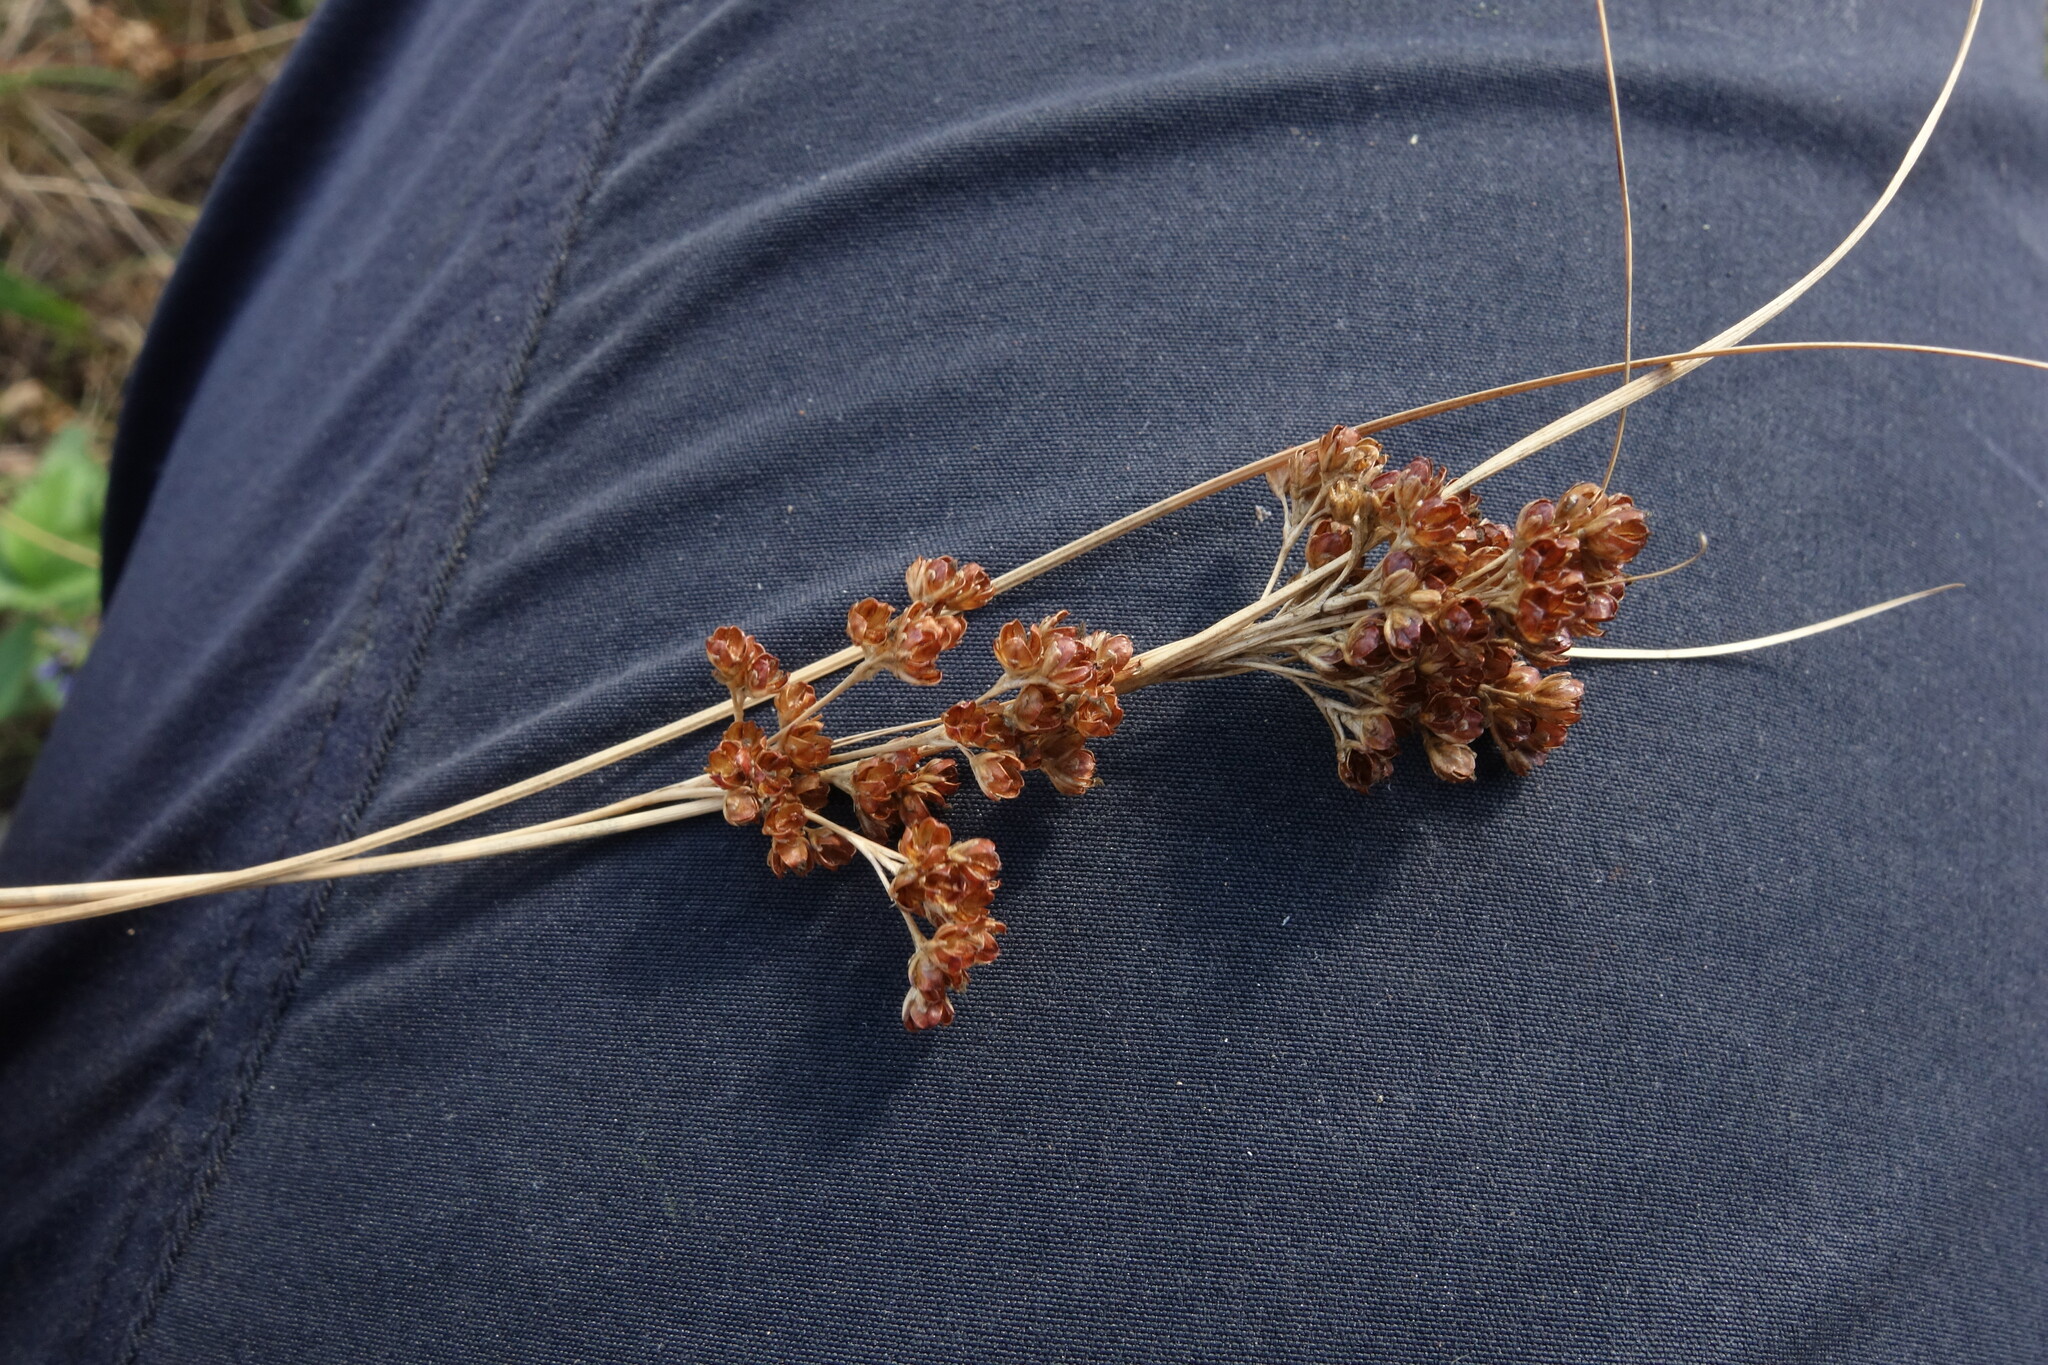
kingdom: Plantae
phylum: Tracheophyta
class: Liliopsida
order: Poales
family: Juncaceae
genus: Juncus
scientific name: Juncus compressus
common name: Round-fruited rush
